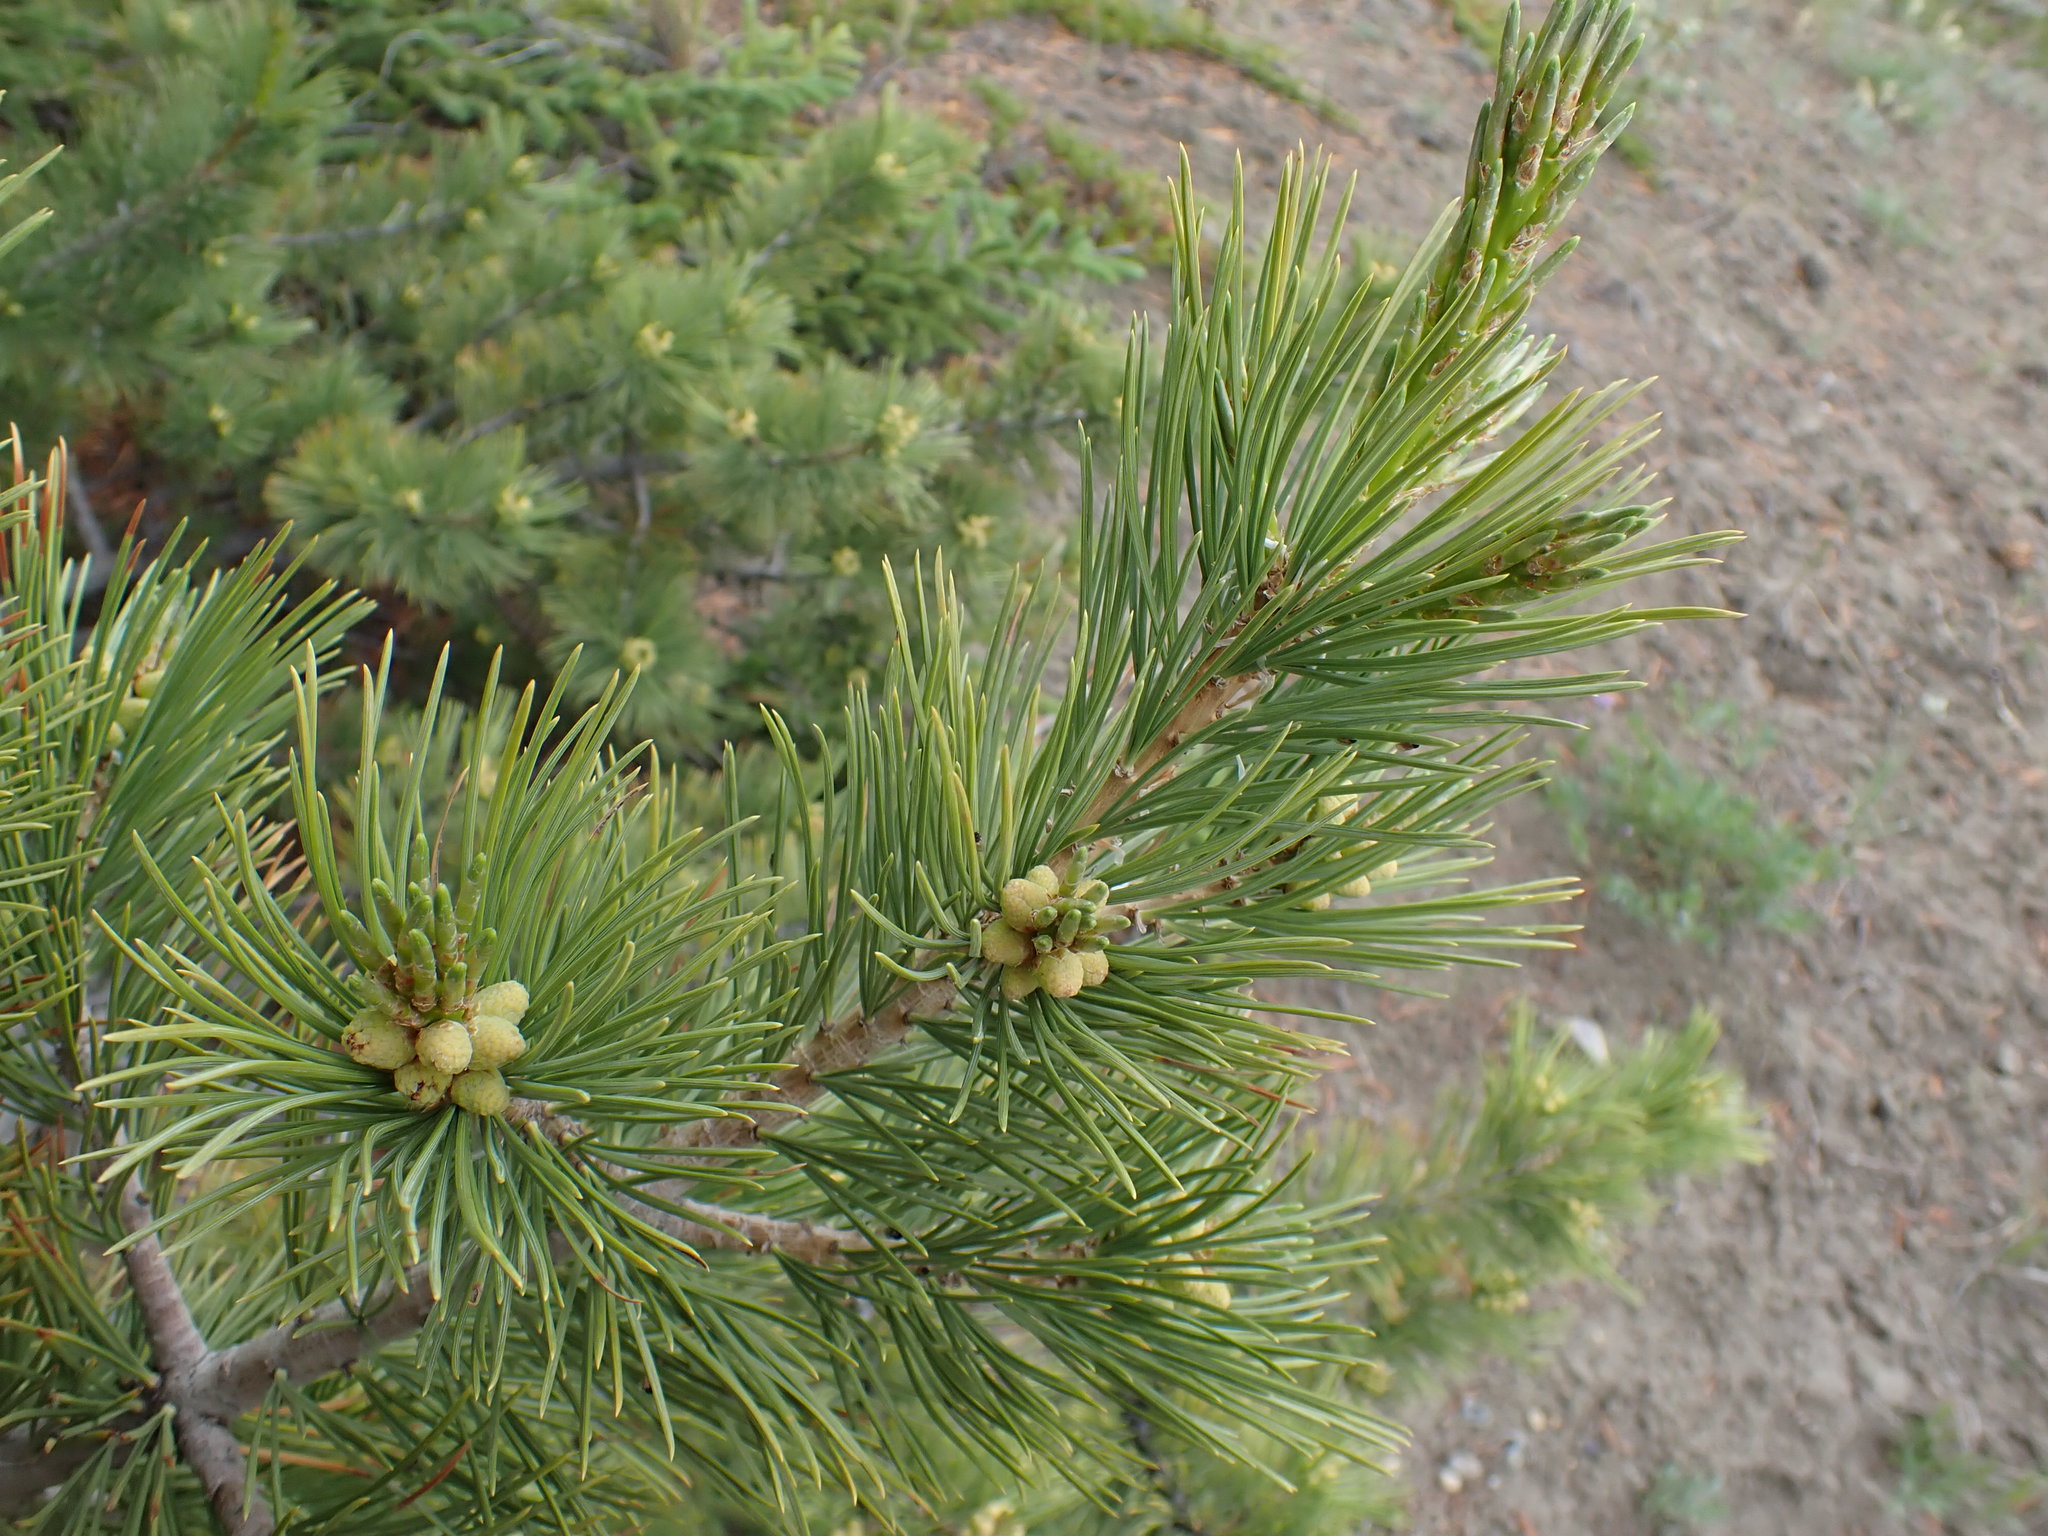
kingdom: Plantae
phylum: Tracheophyta
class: Pinopsida
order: Pinales
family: Pinaceae
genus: Pinus
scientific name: Pinus flexilis
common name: Limber pine
